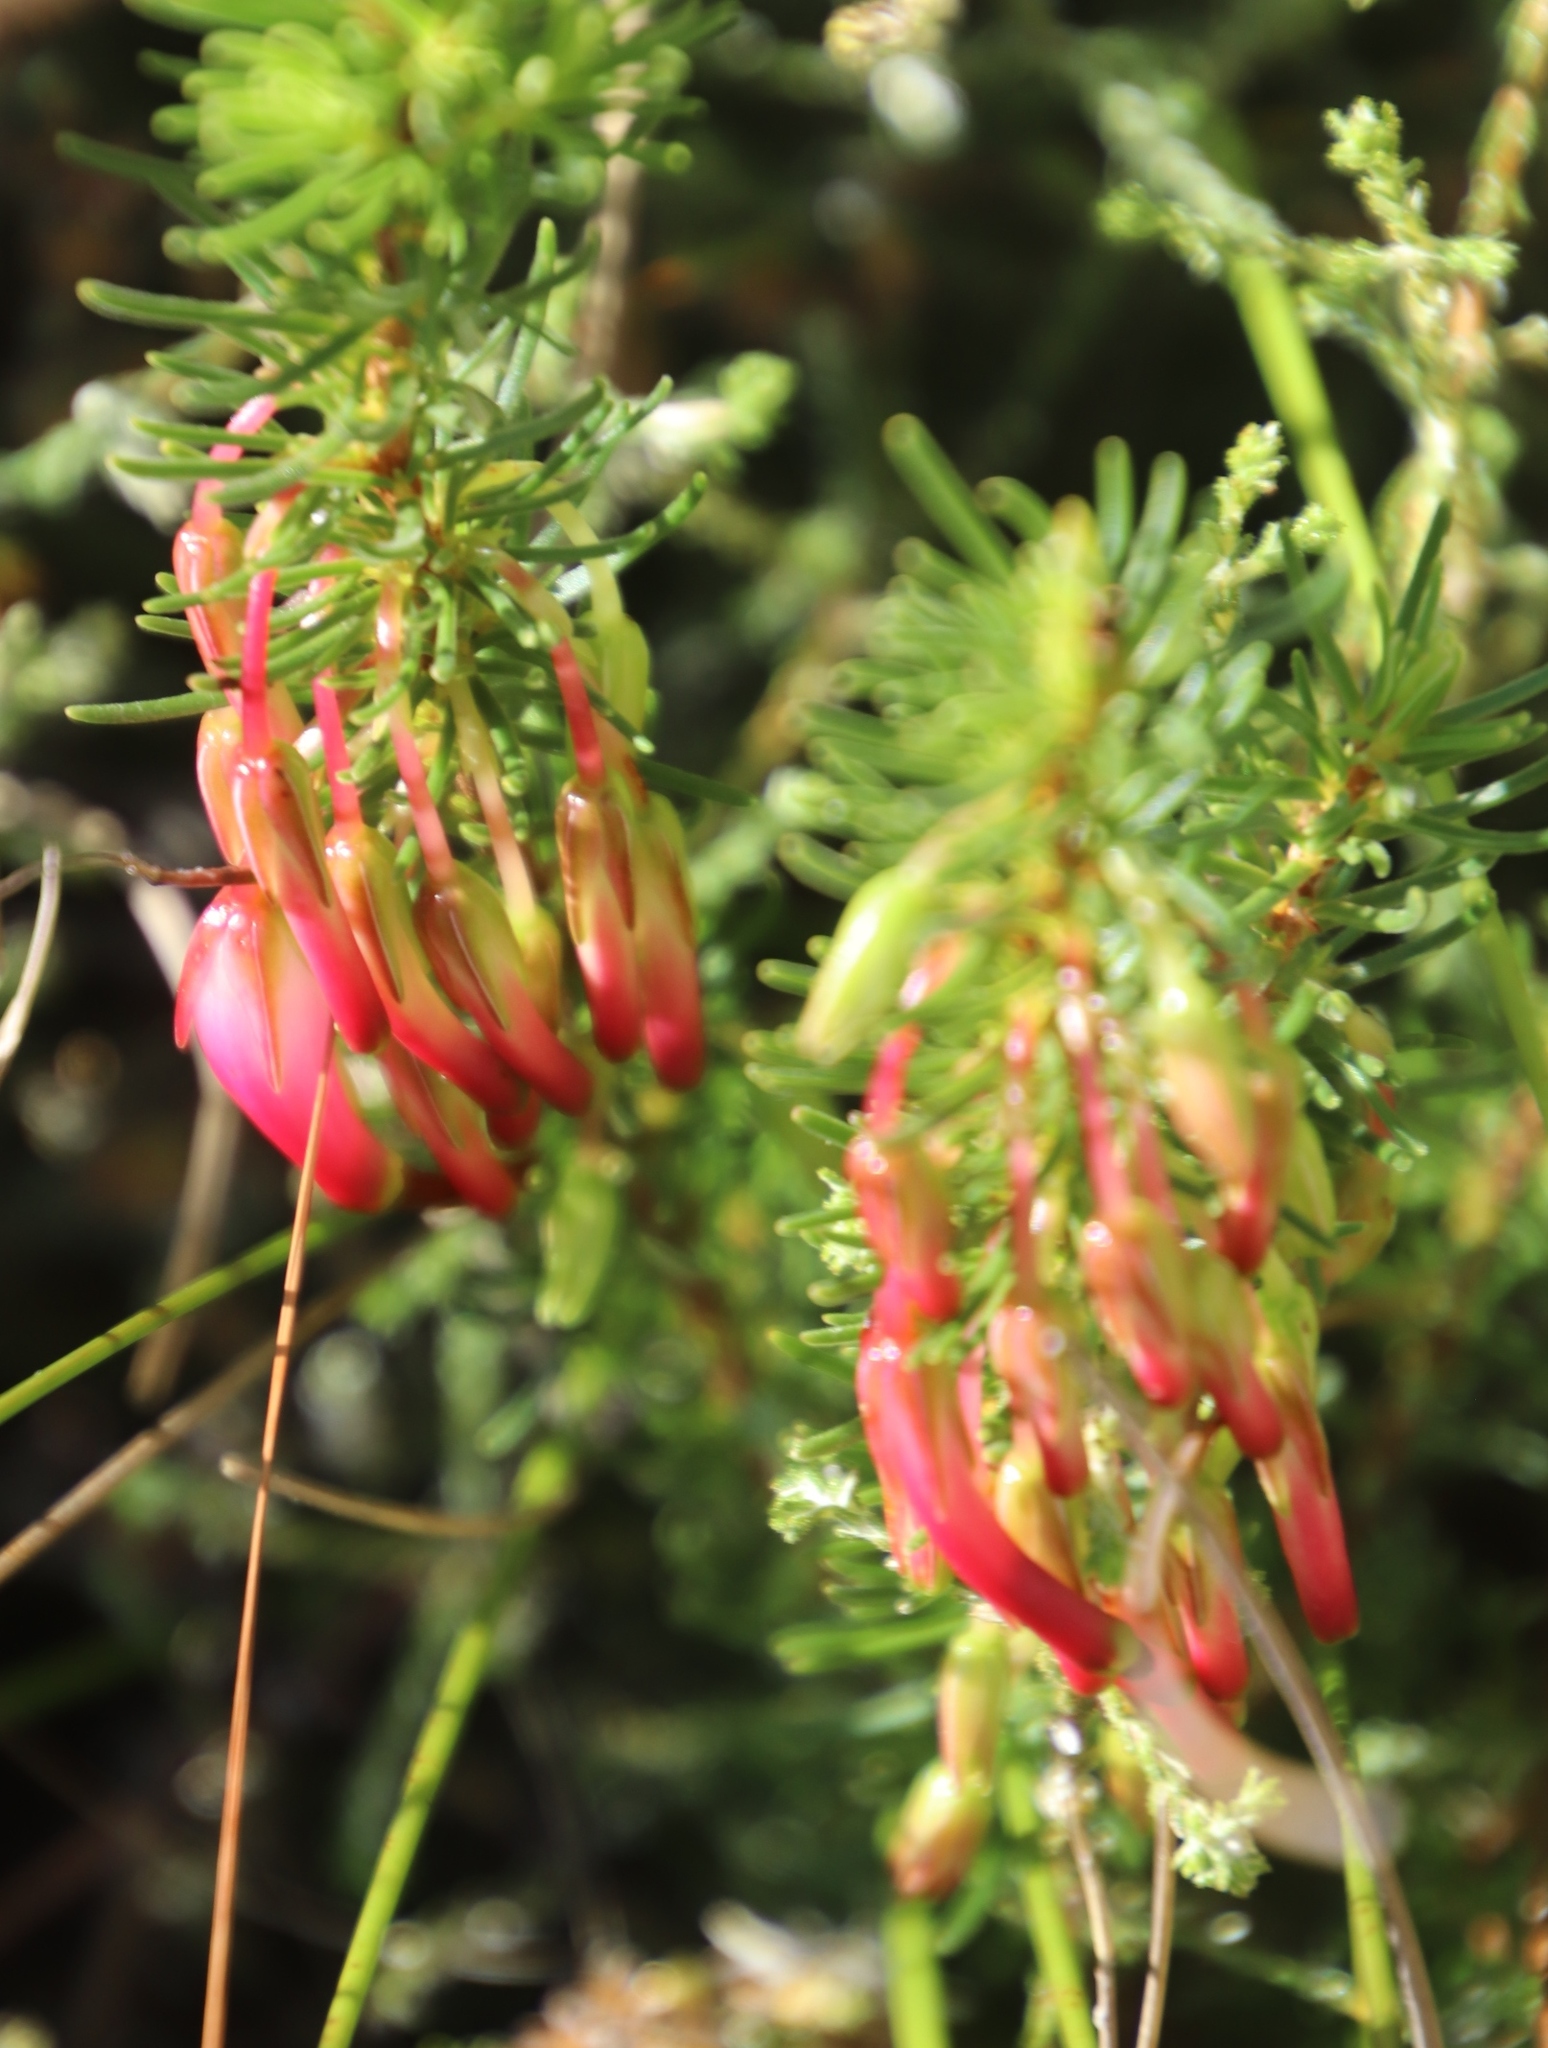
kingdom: Plantae
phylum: Tracheophyta
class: Magnoliopsida
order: Ericales
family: Ericaceae
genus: Erica
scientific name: Erica plukenetii
